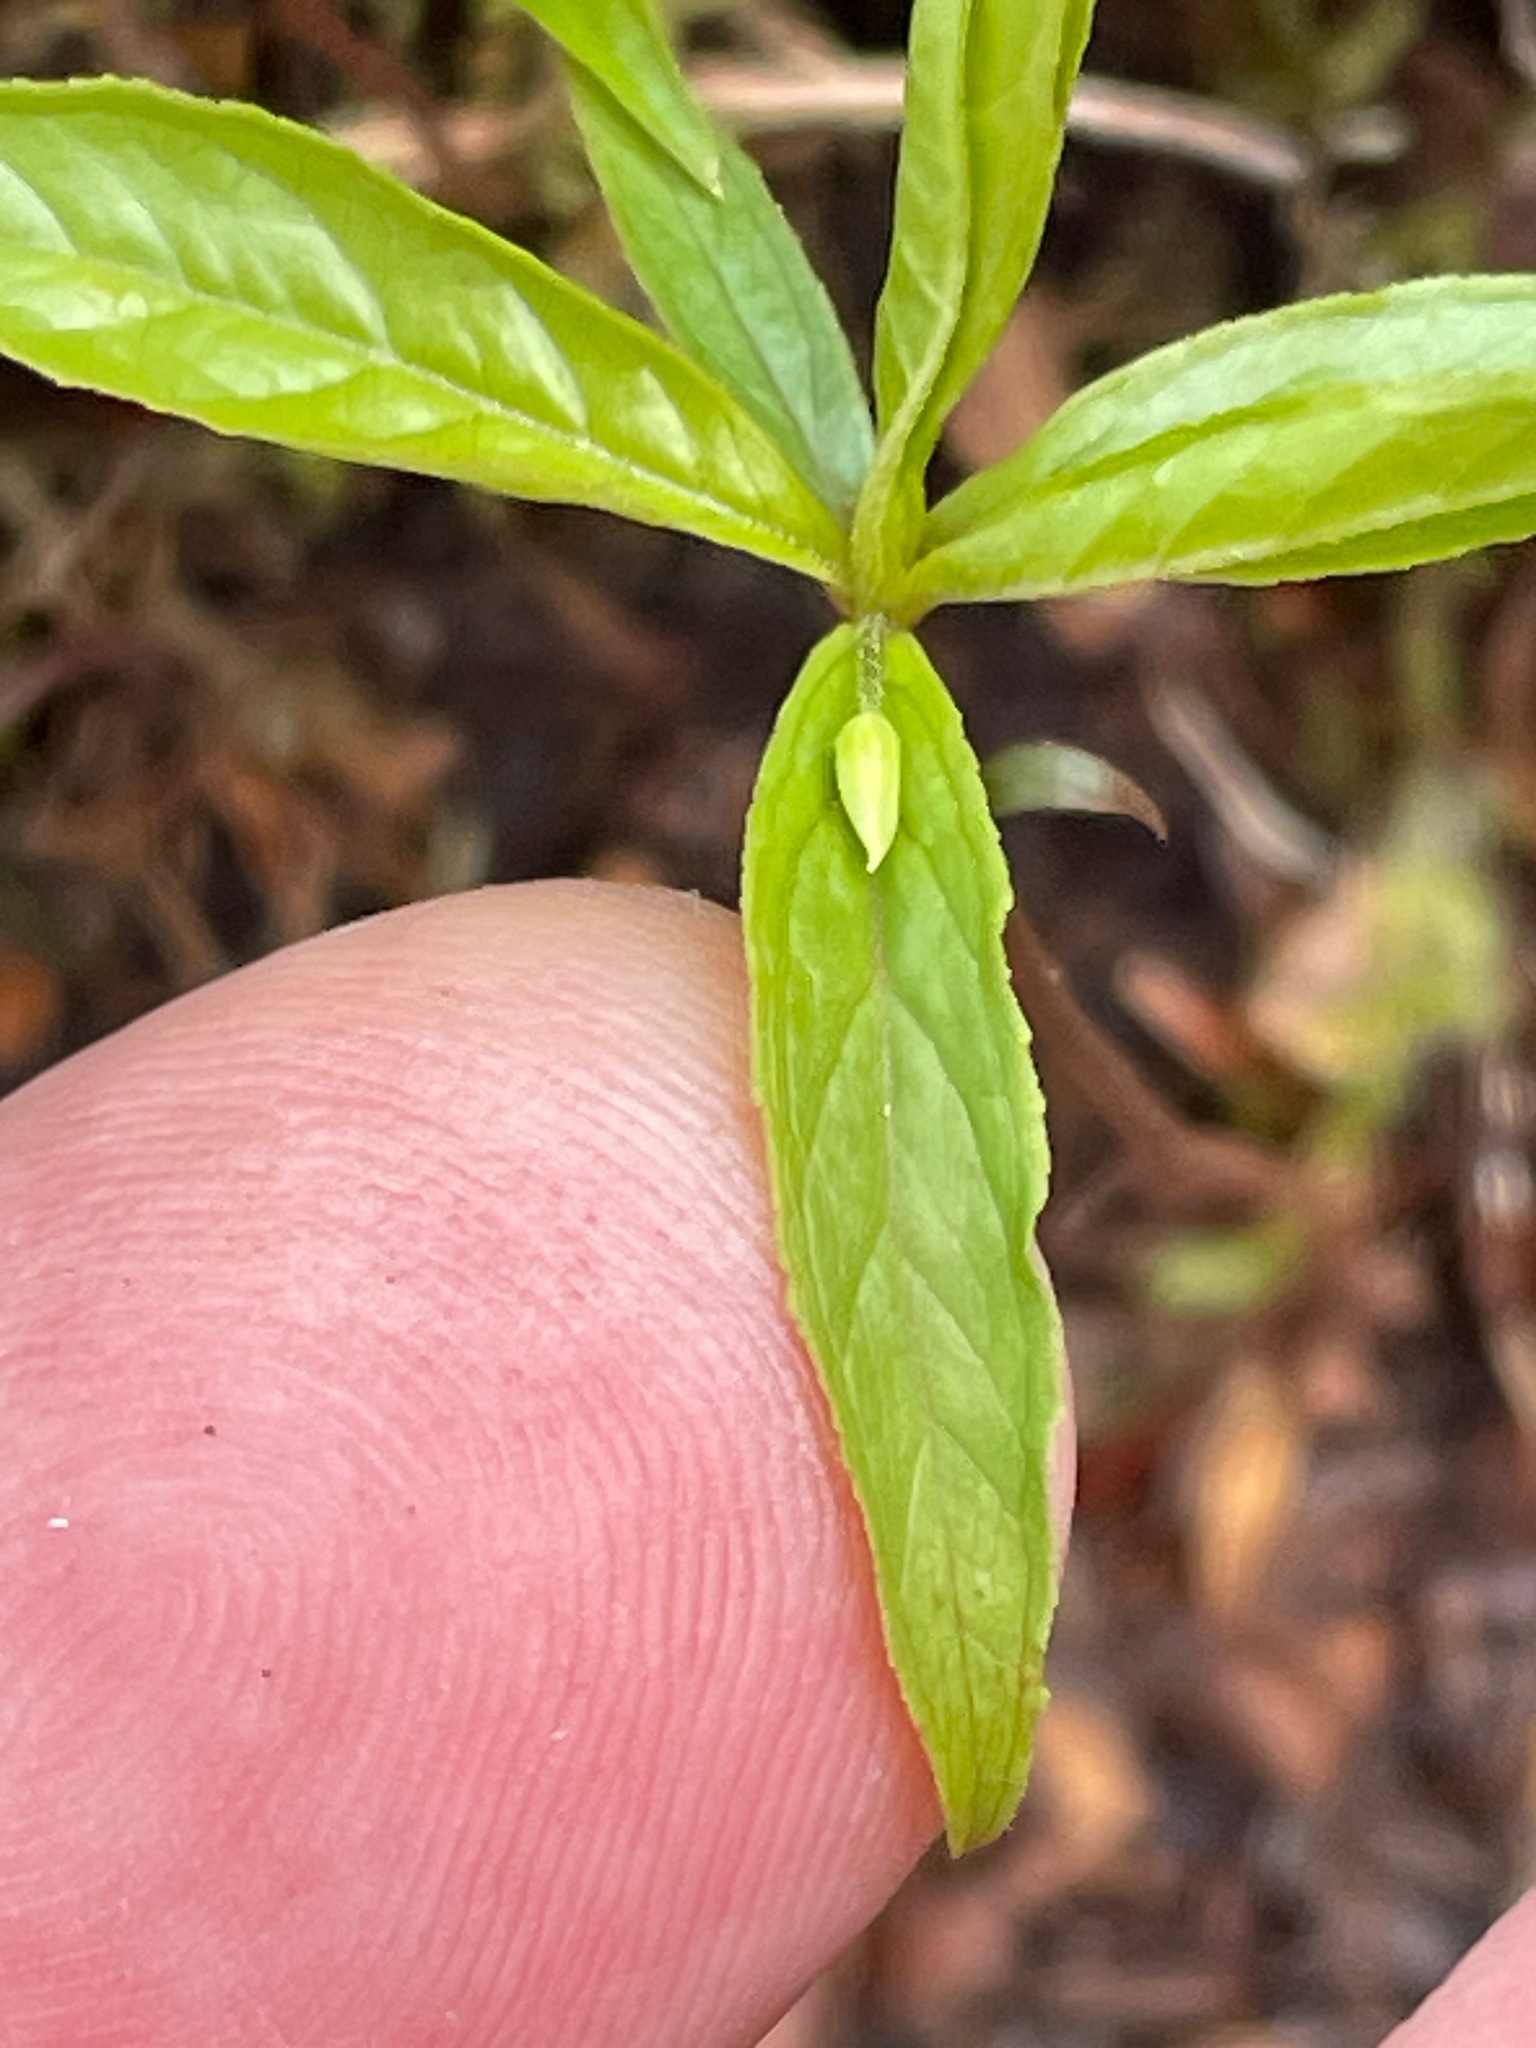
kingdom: Plantae
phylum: Tracheophyta
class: Magnoliopsida
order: Ericales
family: Primulaceae
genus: Lysimachia
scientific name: Lysimachia borealis
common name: American starflower
